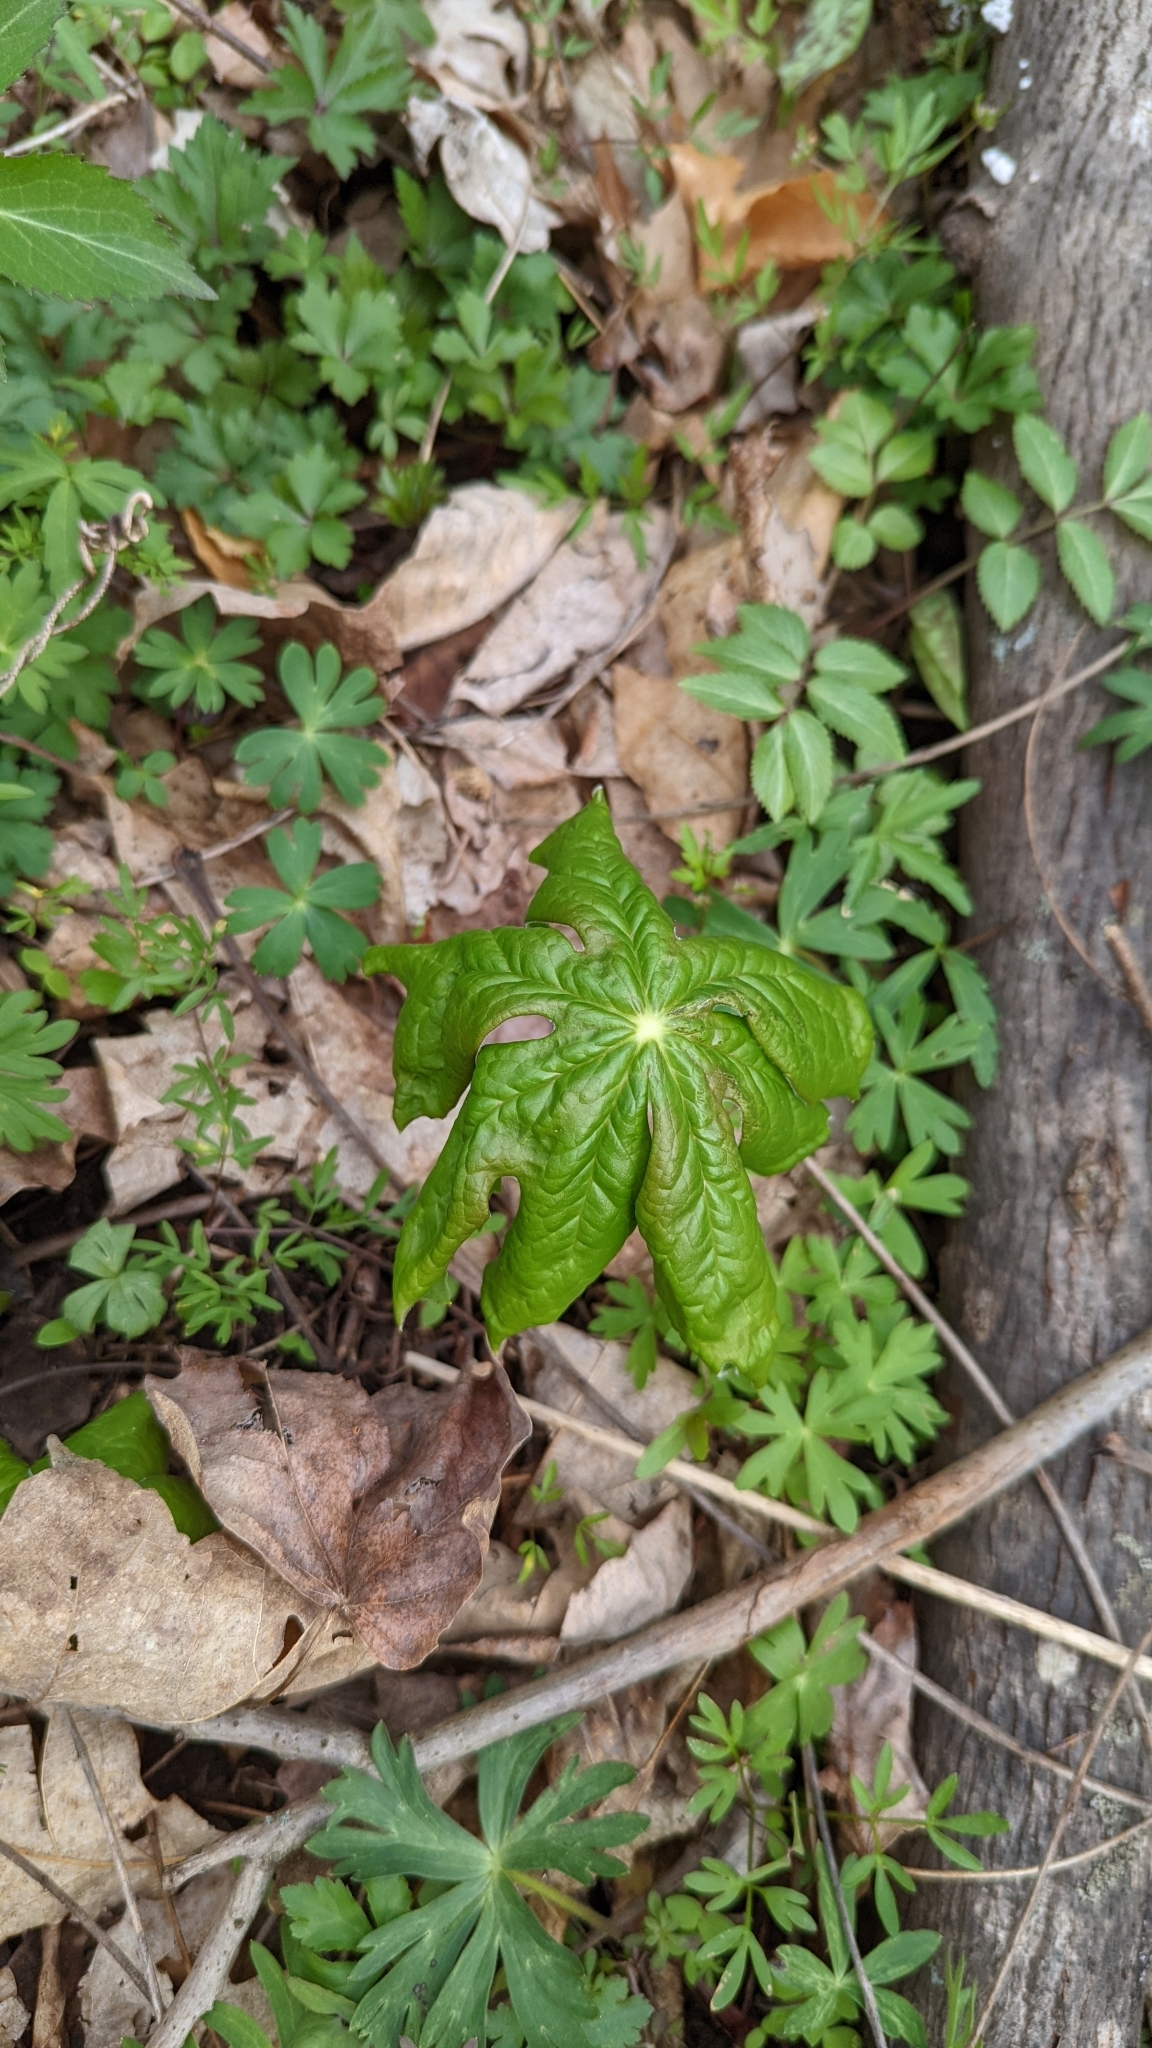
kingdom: Plantae
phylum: Tracheophyta
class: Magnoliopsida
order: Ranunculales
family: Berberidaceae
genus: Podophyllum
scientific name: Podophyllum peltatum
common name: Wild mandrake
